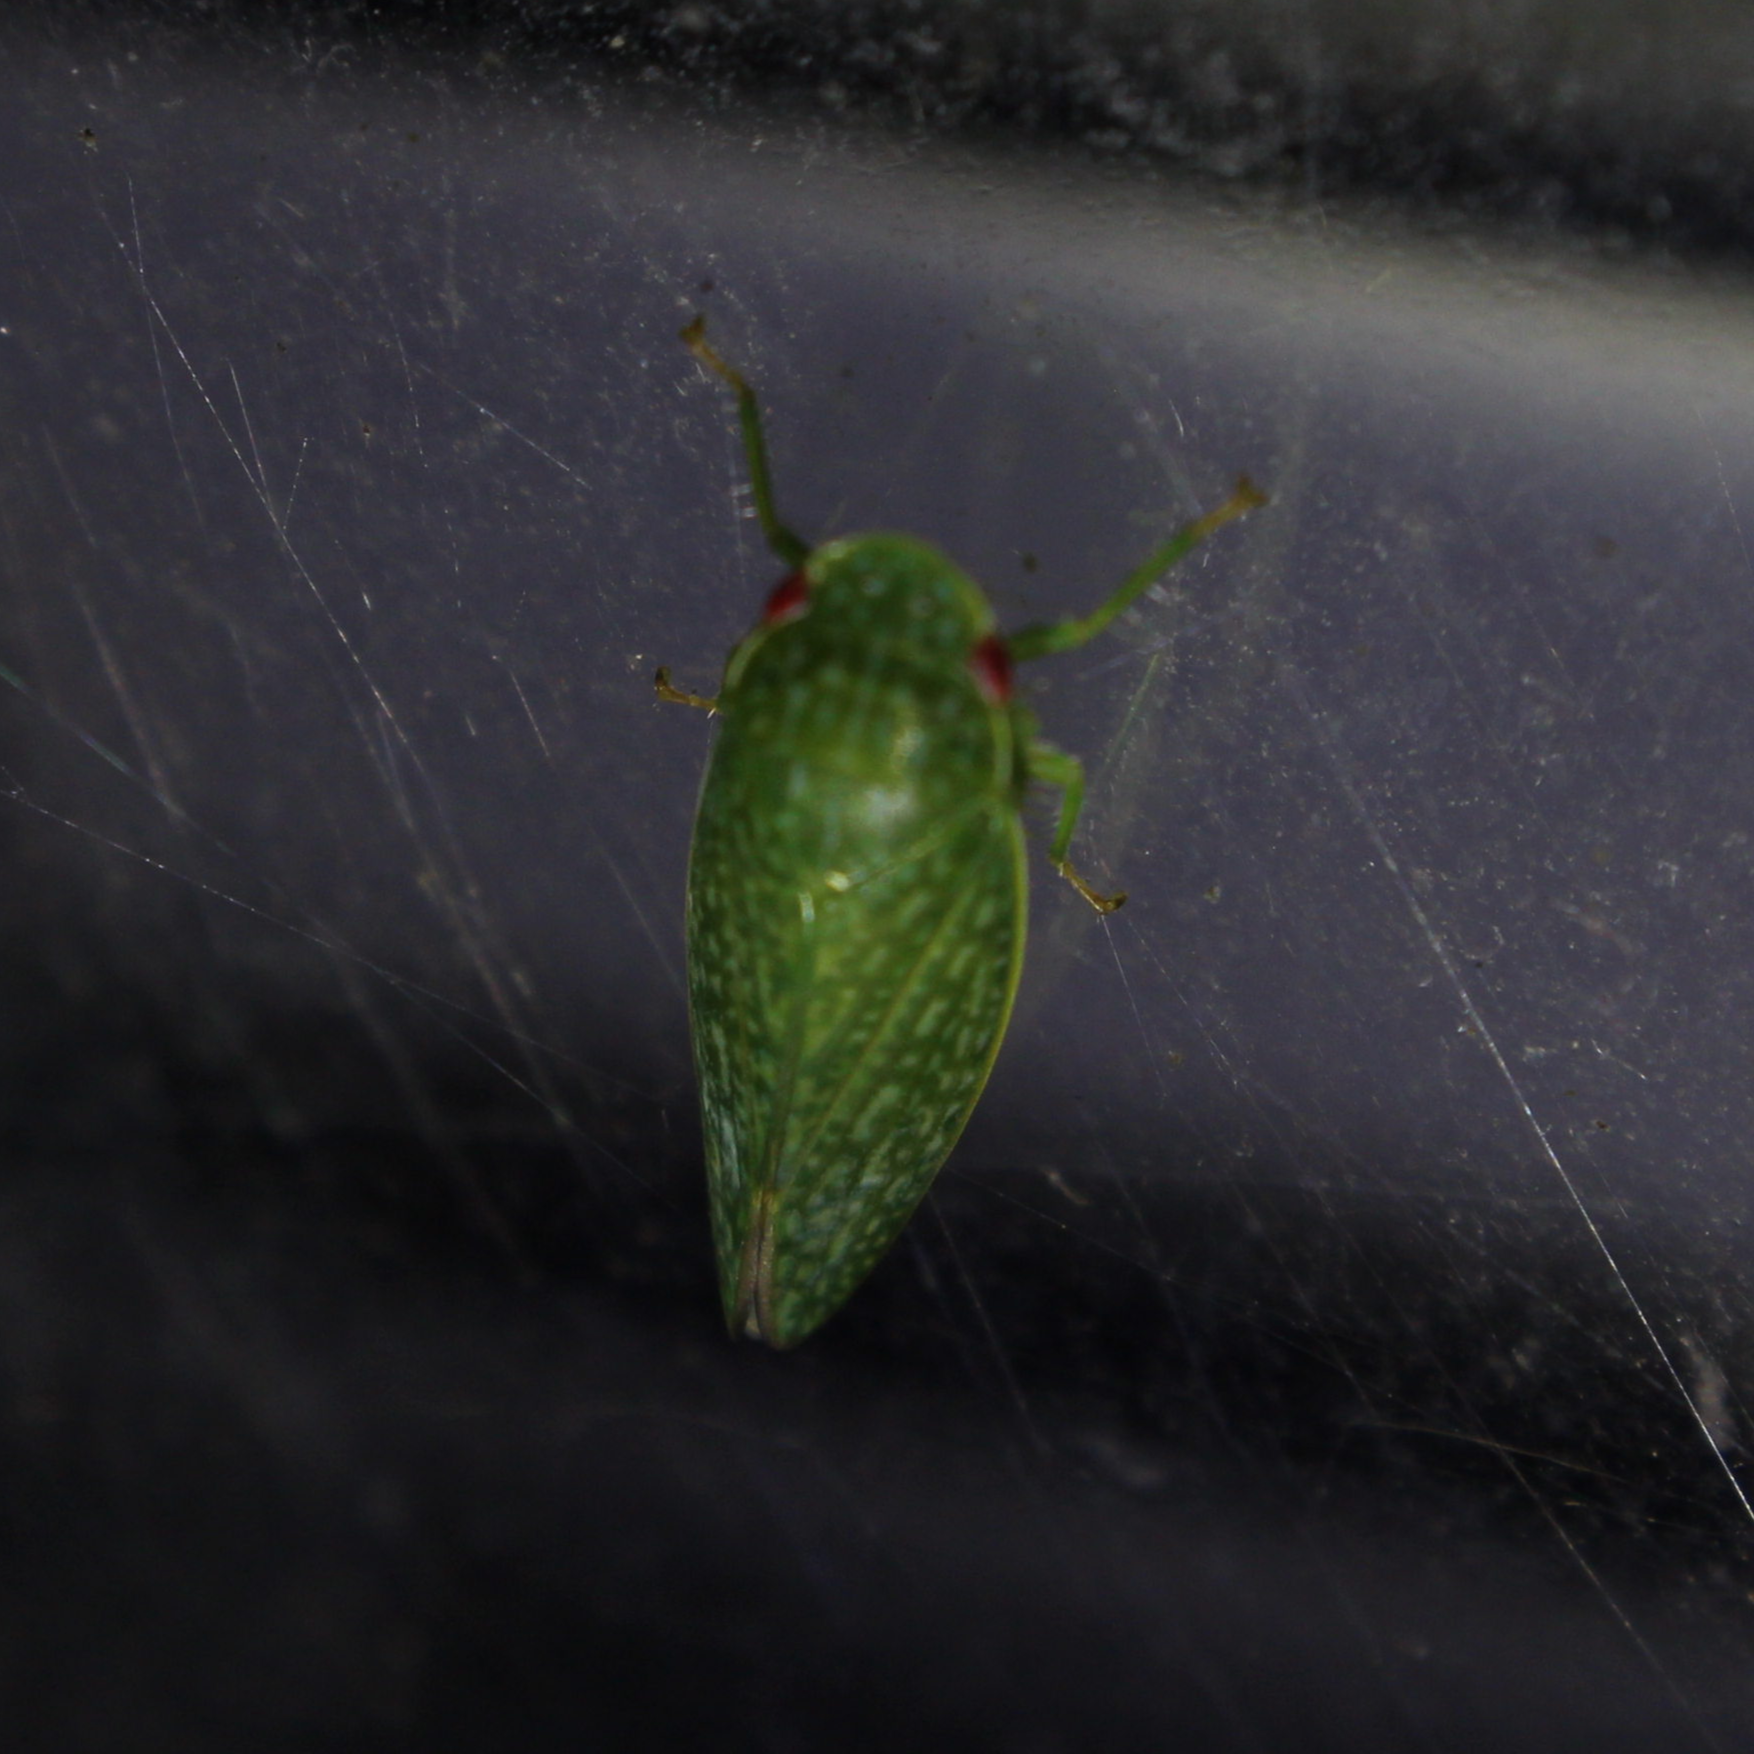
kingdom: Animalia
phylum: Arthropoda
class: Insecta
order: Hemiptera
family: Cicadellidae
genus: Rugosana
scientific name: Rugosana querci
